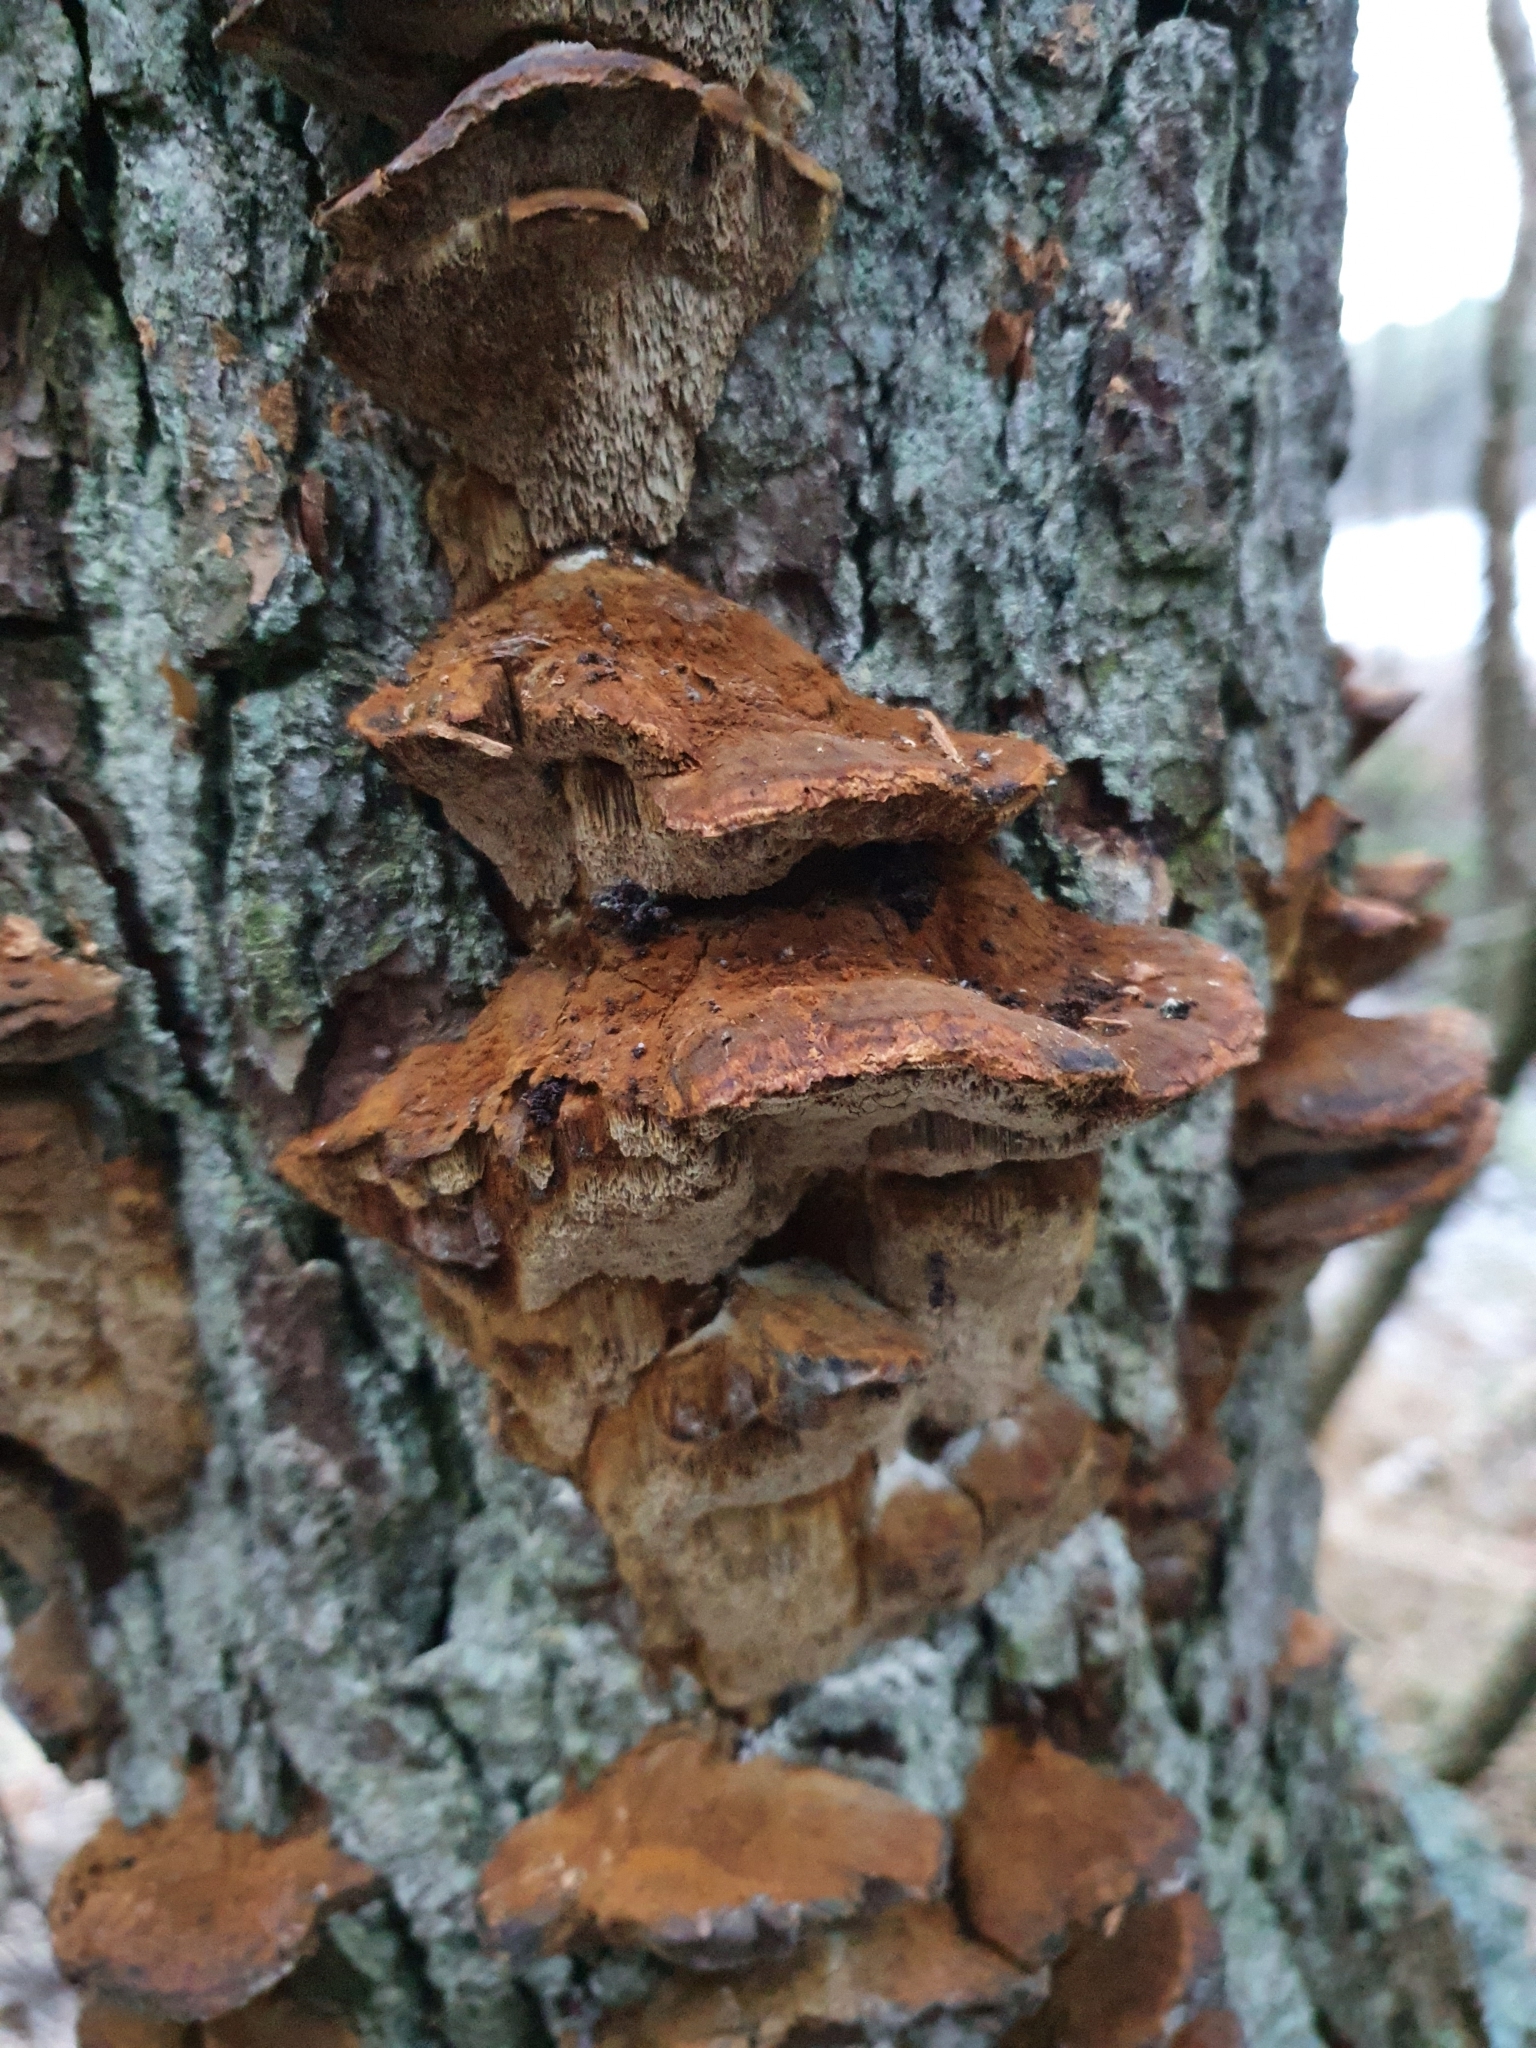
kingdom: Fungi
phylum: Basidiomycota
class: Agaricomycetes
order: Hymenochaetales
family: Hymenochaetaceae
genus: Xanthoporia
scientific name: Xanthoporia radiata
